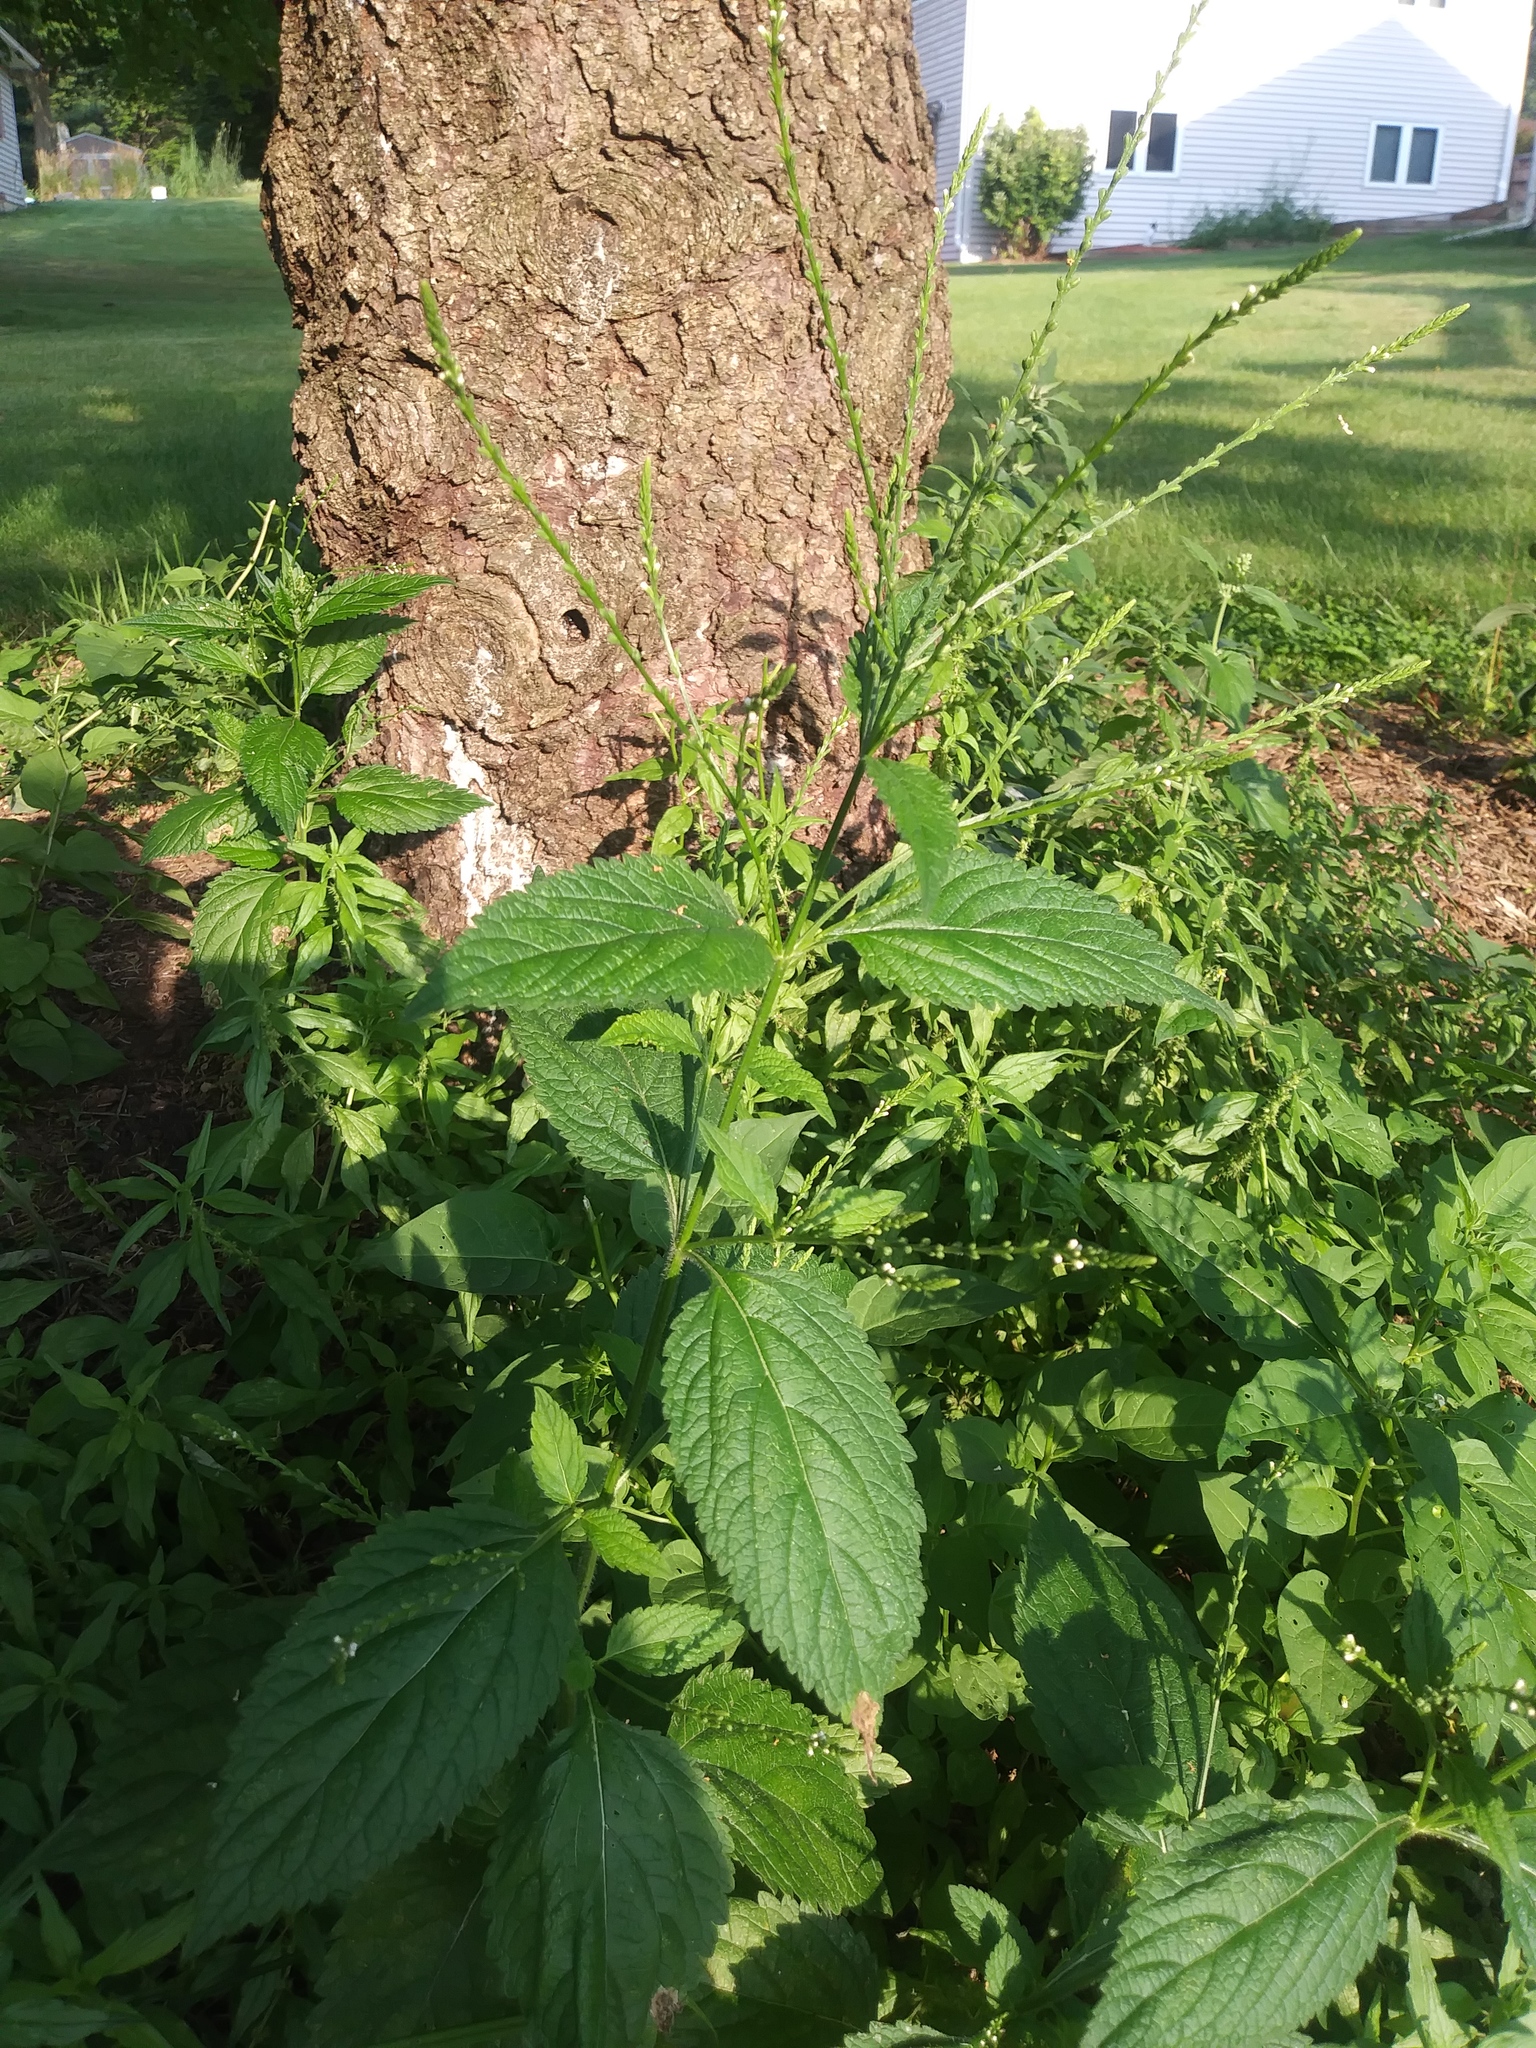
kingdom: Plantae
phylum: Tracheophyta
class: Magnoliopsida
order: Lamiales
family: Verbenaceae
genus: Verbena
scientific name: Verbena urticifolia
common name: Nettle-leaved vervain
